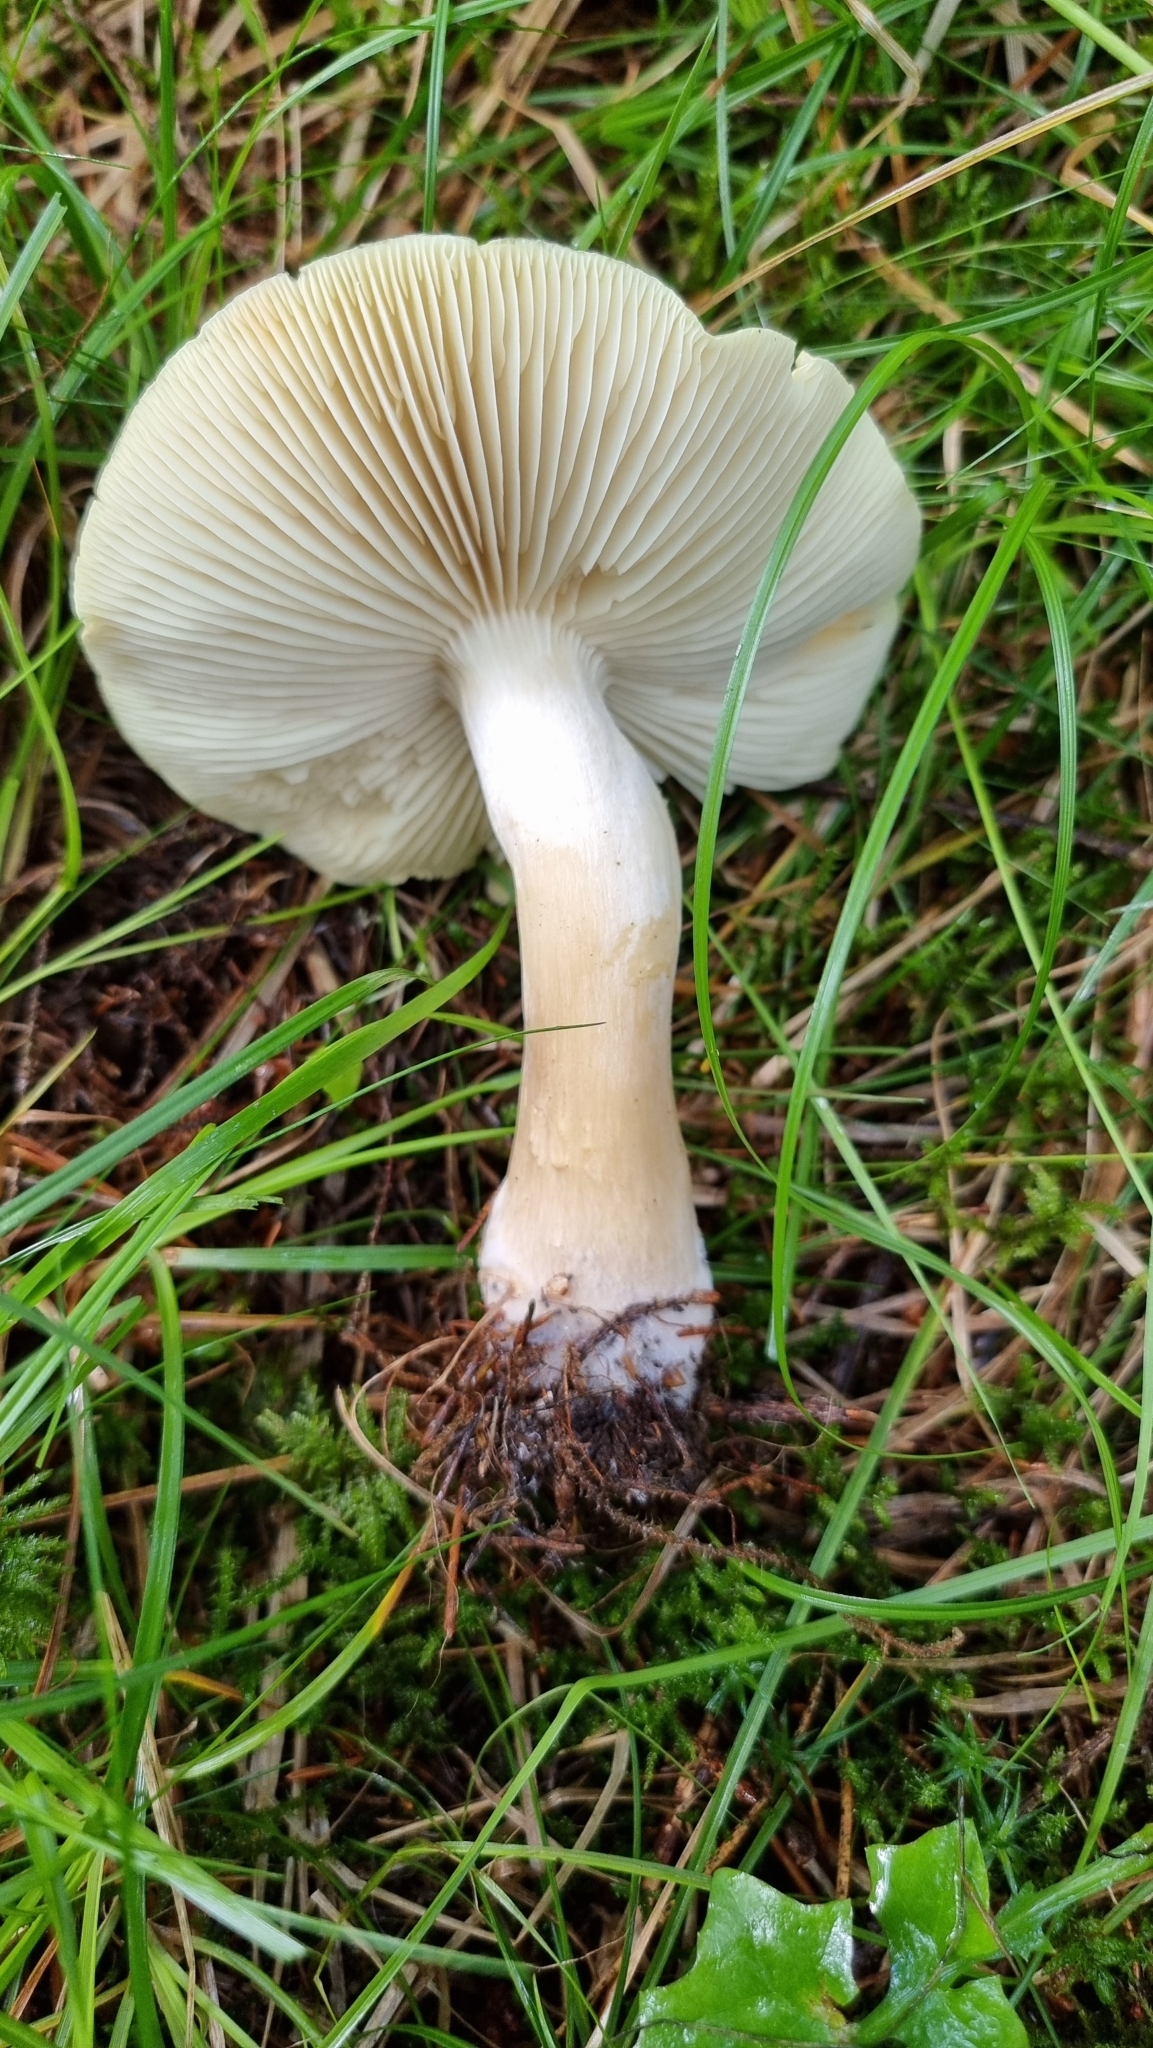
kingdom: Fungi
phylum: Basidiomycota
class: Agaricomycetes
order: Agaricales
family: Tricholomataceae
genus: Tricholoma
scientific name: Tricholoma saponaceum
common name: Soapy trich
